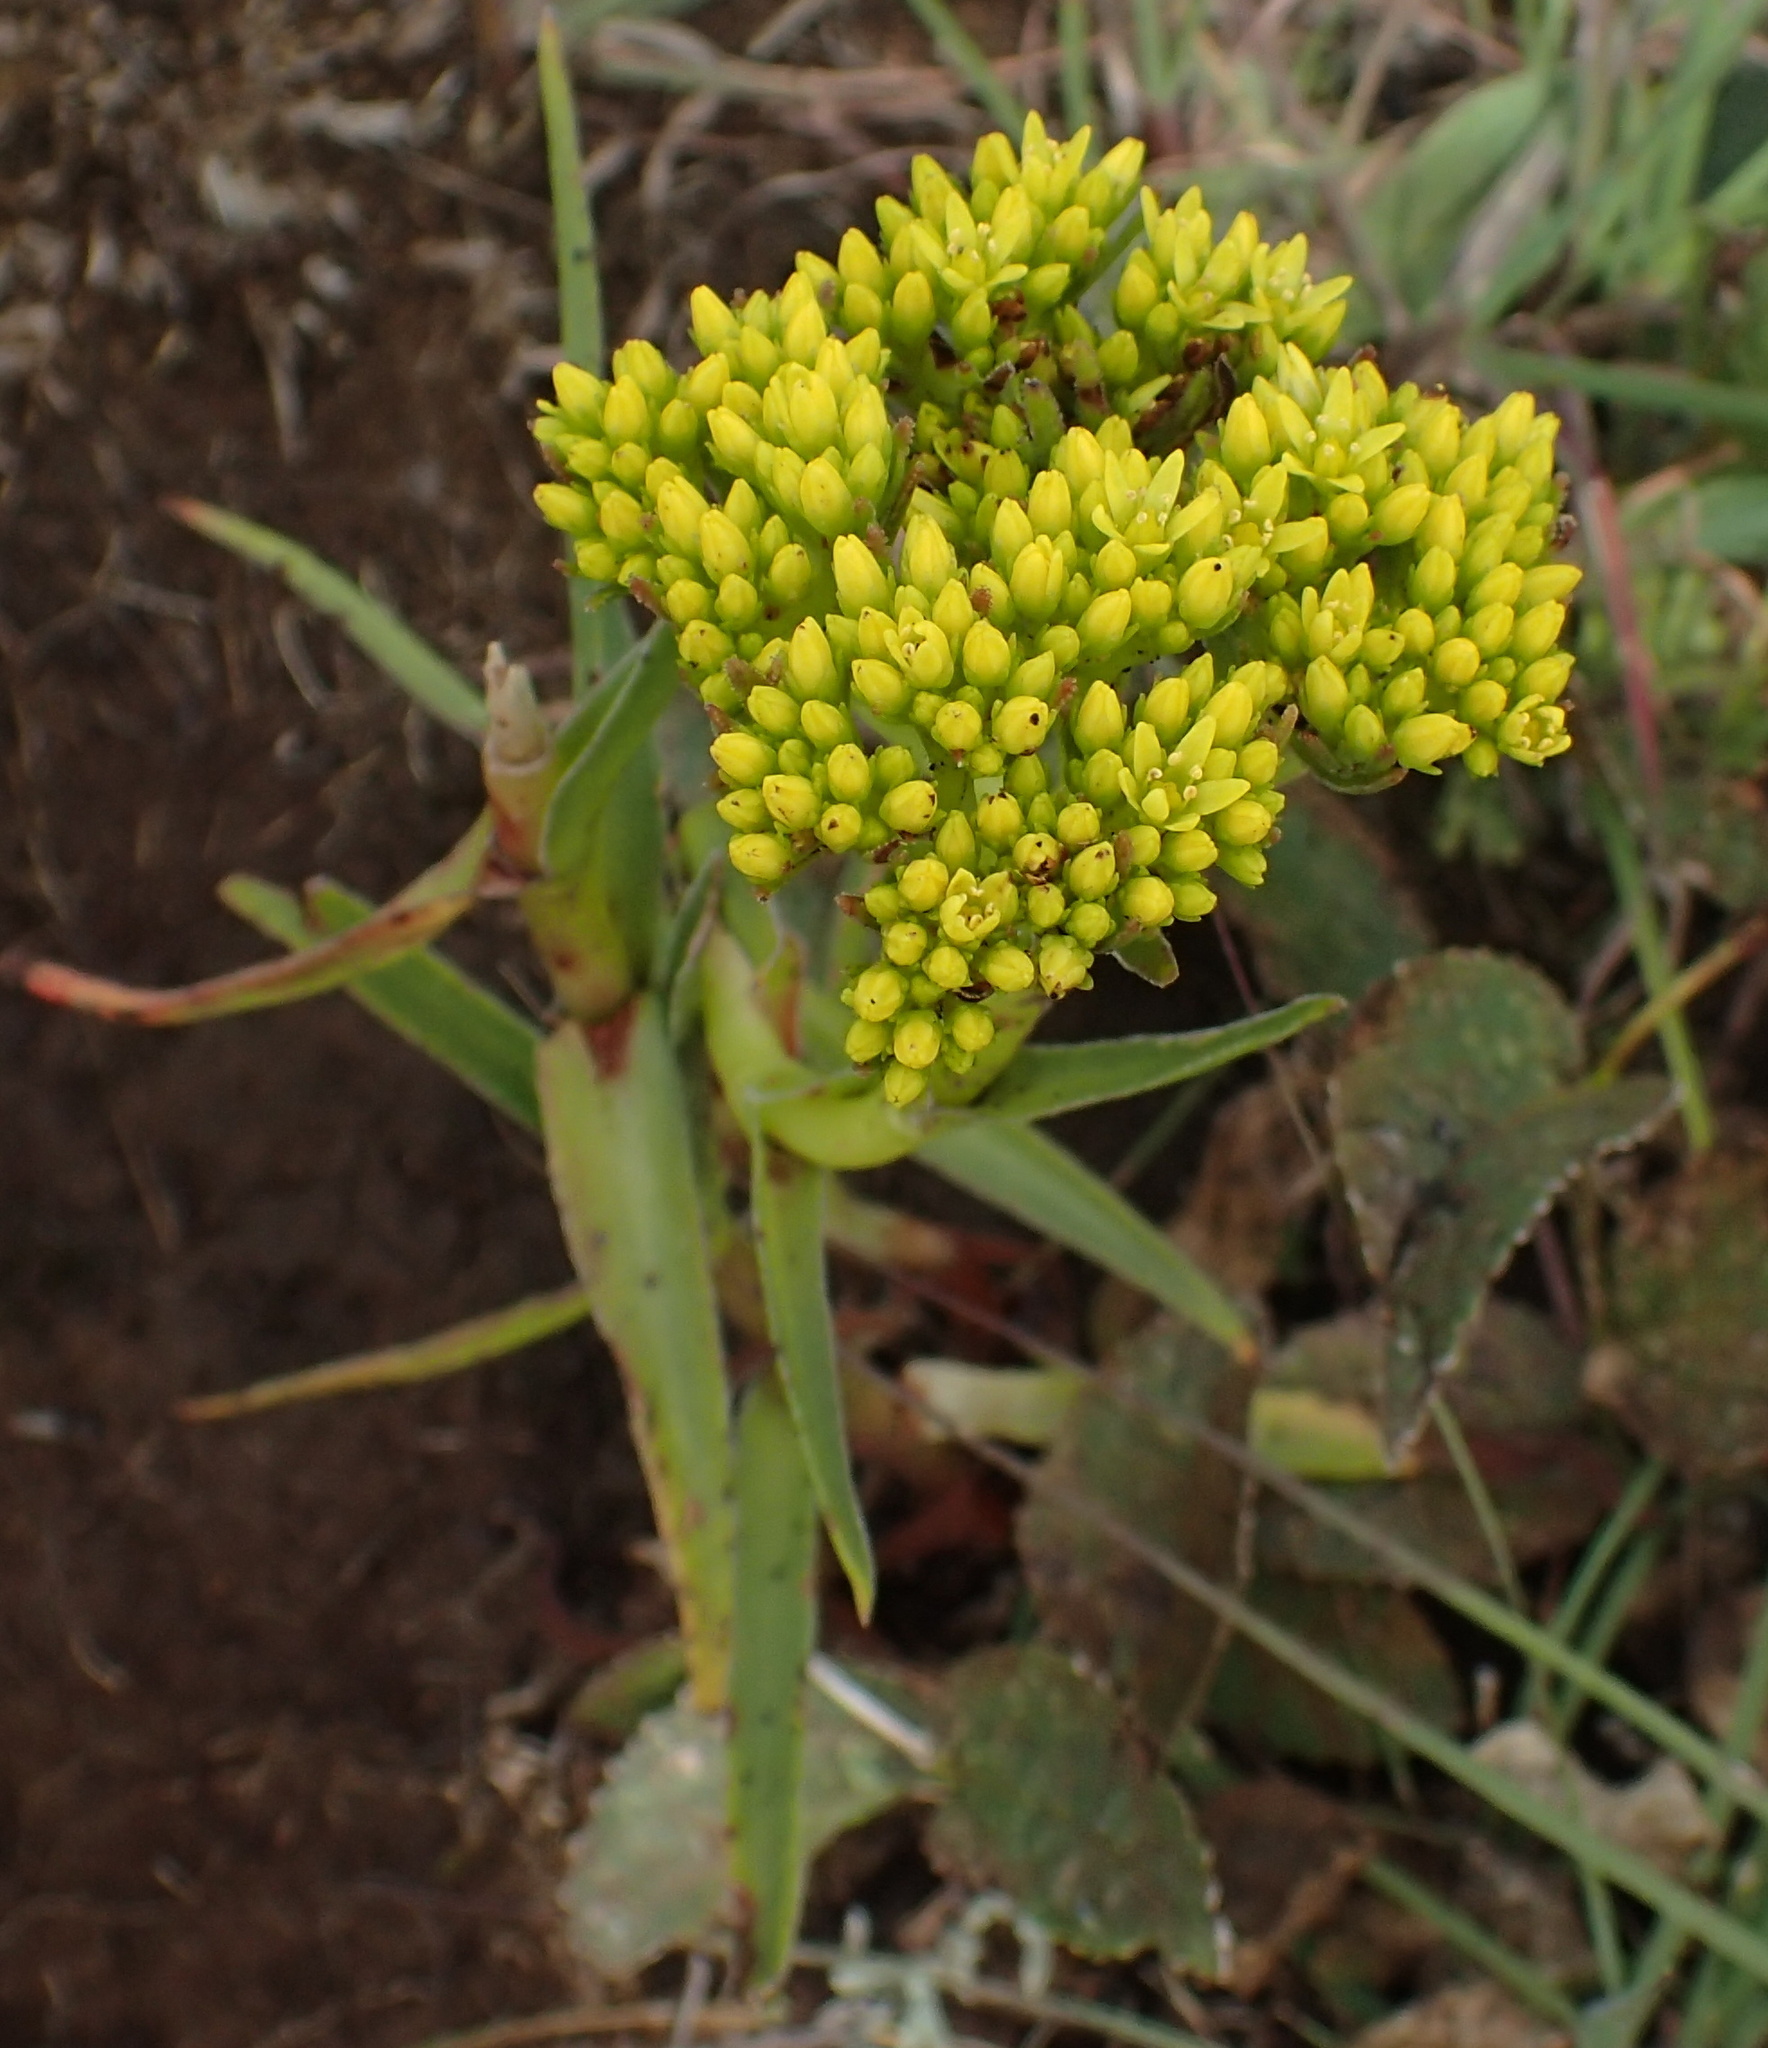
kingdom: Plantae
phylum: Tracheophyta
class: Magnoliopsida
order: Saxifragales
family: Crassulaceae
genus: Crassula
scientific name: Crassula vaginata
